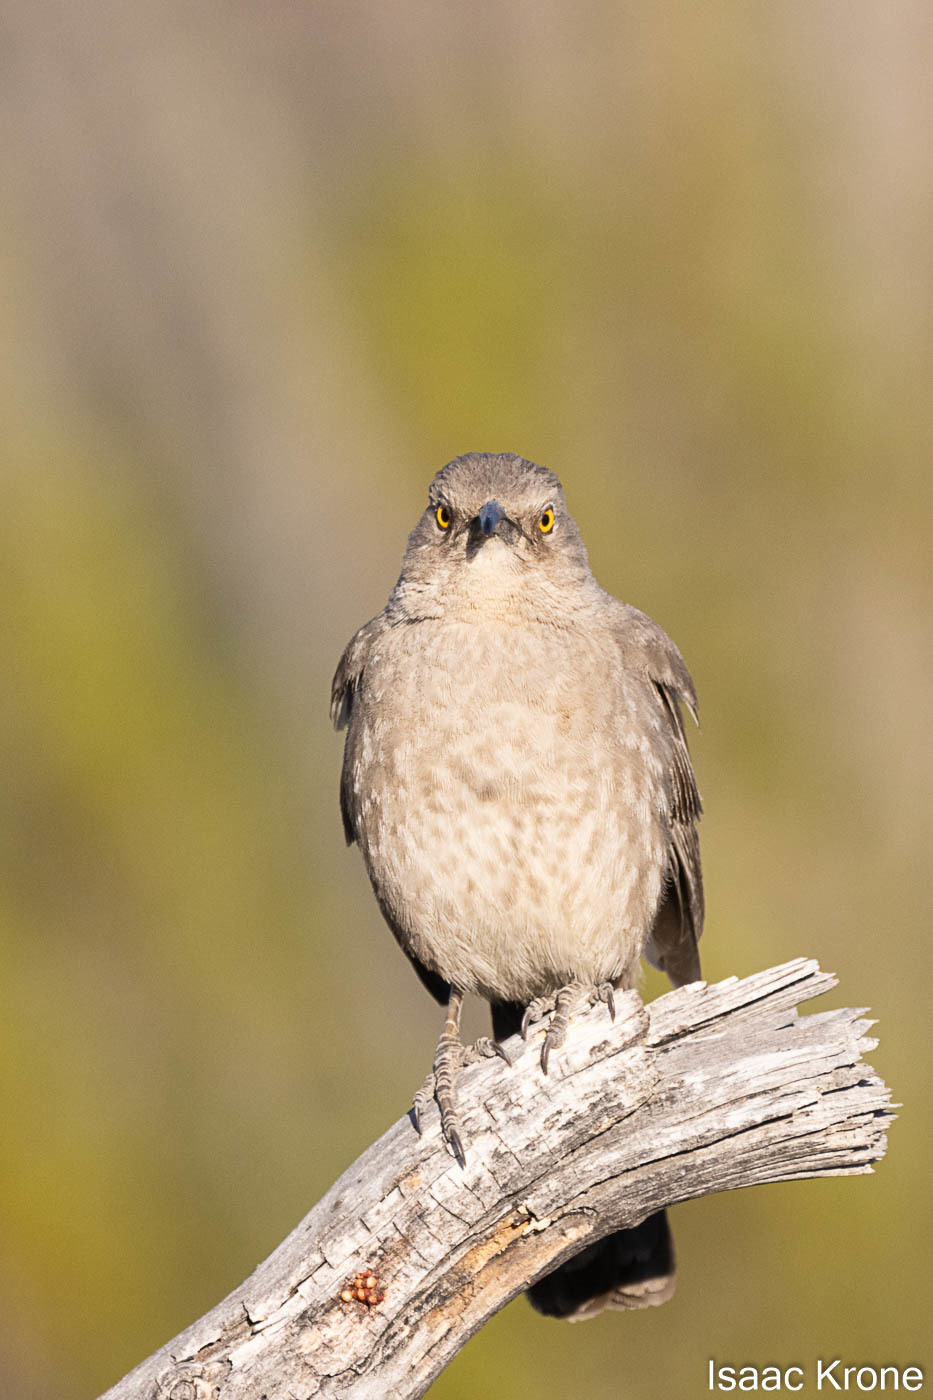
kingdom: Animalia
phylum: Chordata
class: Aves
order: Passeriformes
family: Mimidae
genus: Toxostoma
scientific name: Toxostoma curvirostre
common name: Curve-billed thrasher
